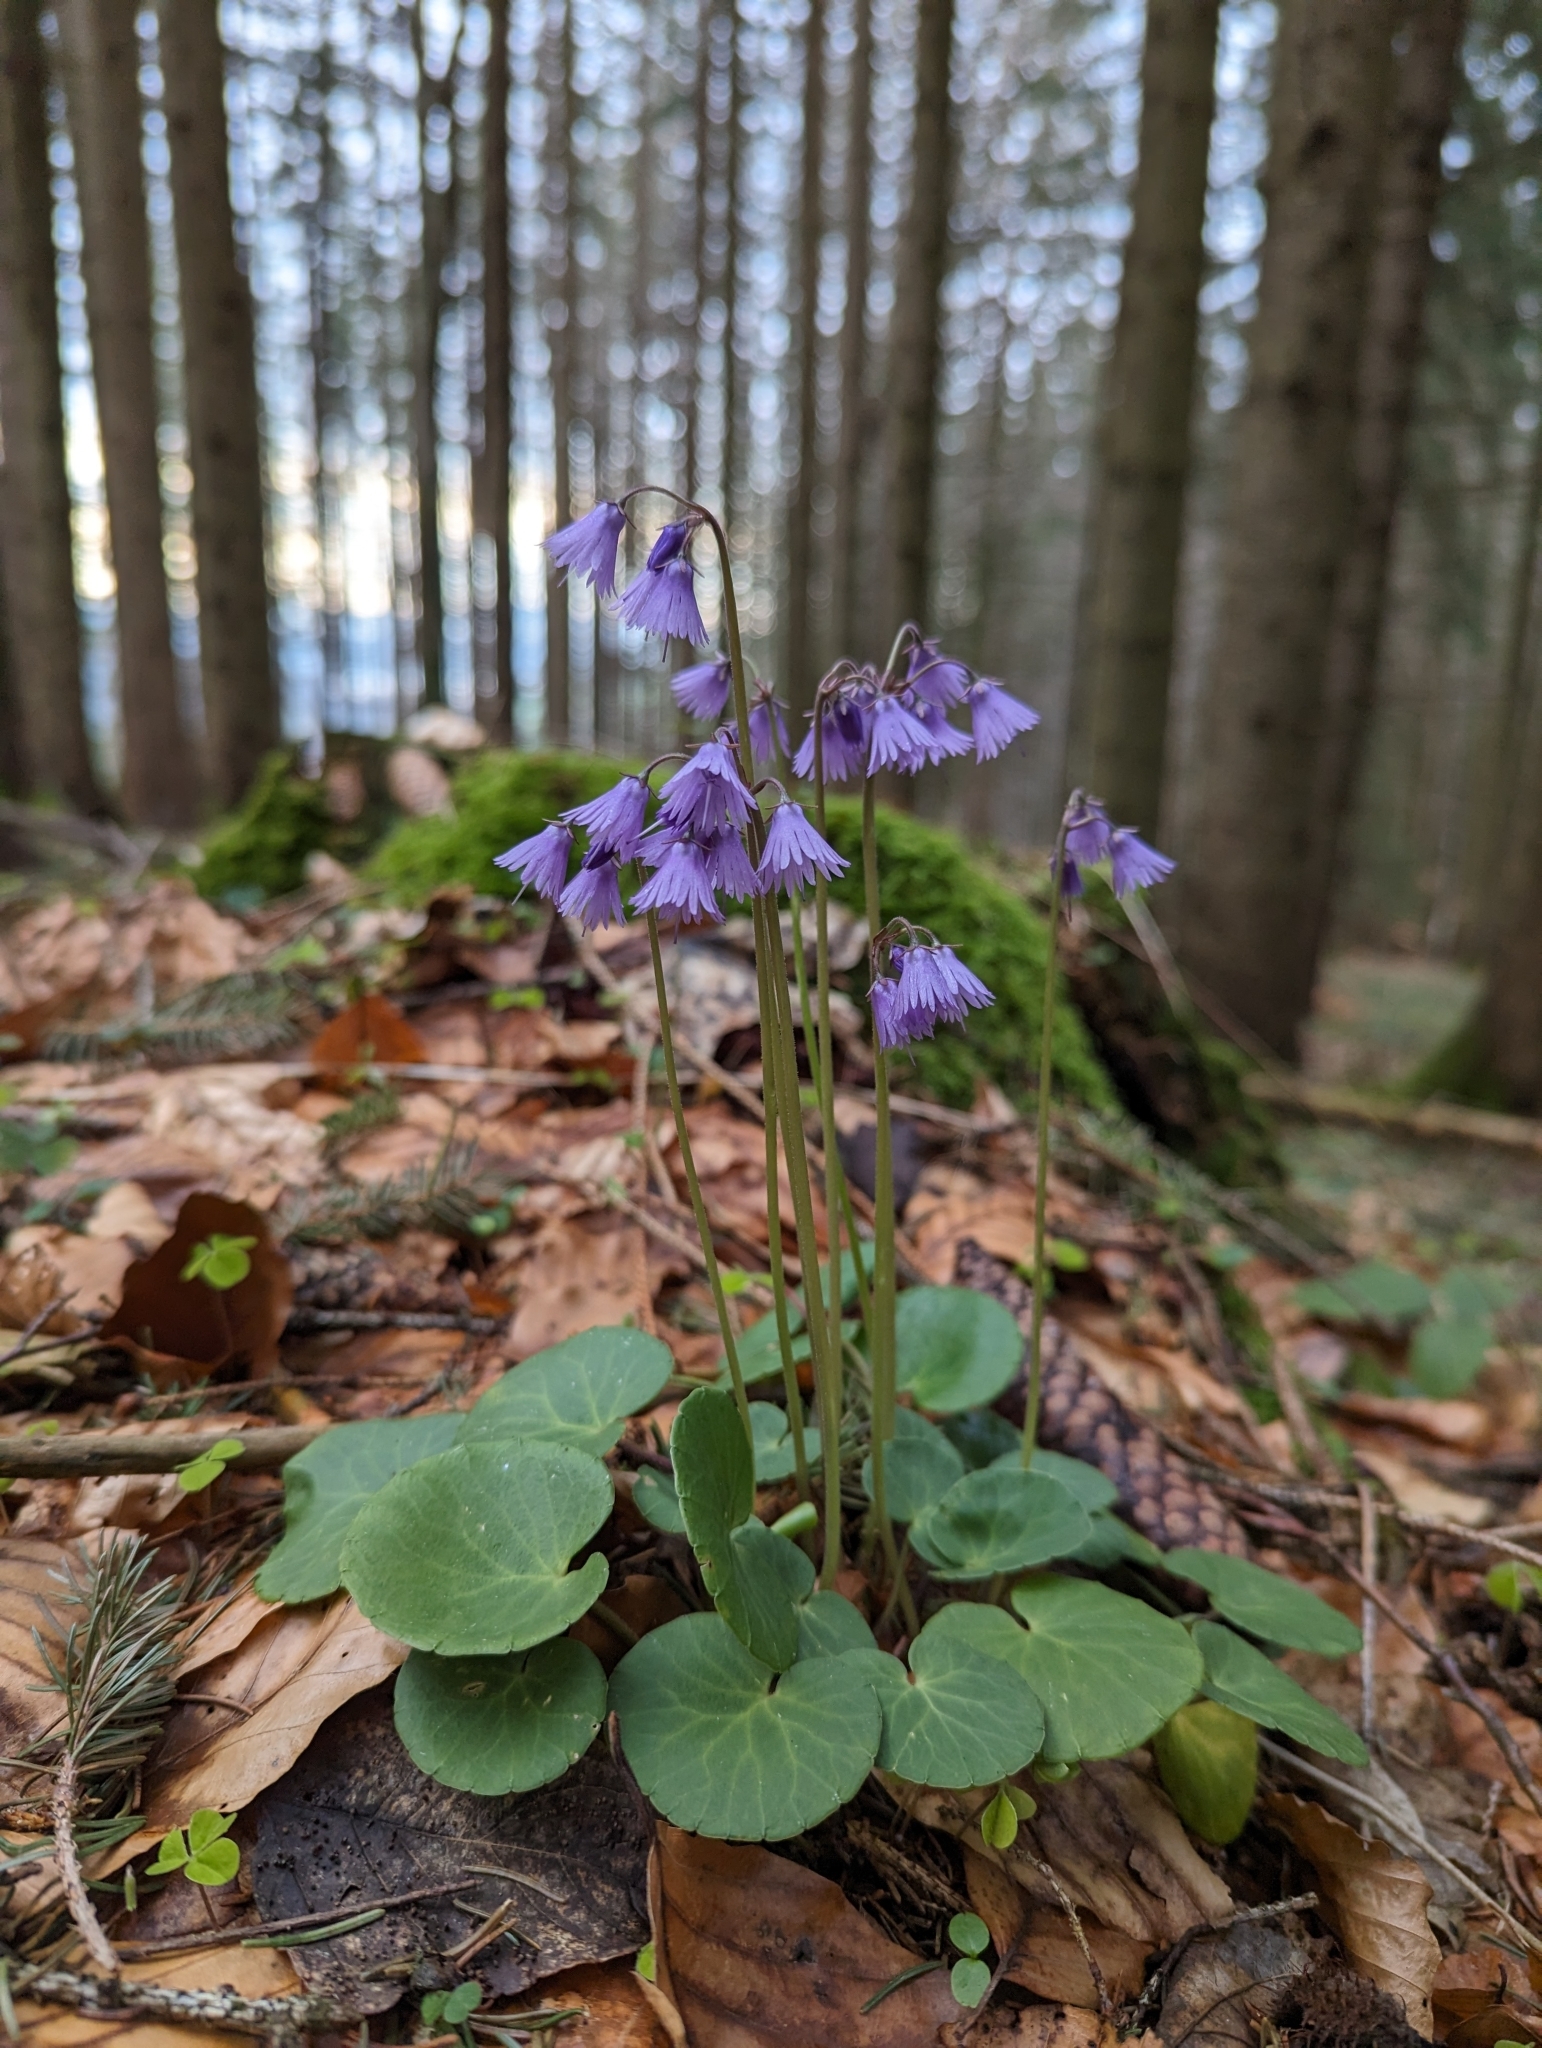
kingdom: Plantae
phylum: Tracheophyta
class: Magnoliopsida
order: Ericales
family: Primulaceae
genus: Soldanella
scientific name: Soldanella montana
